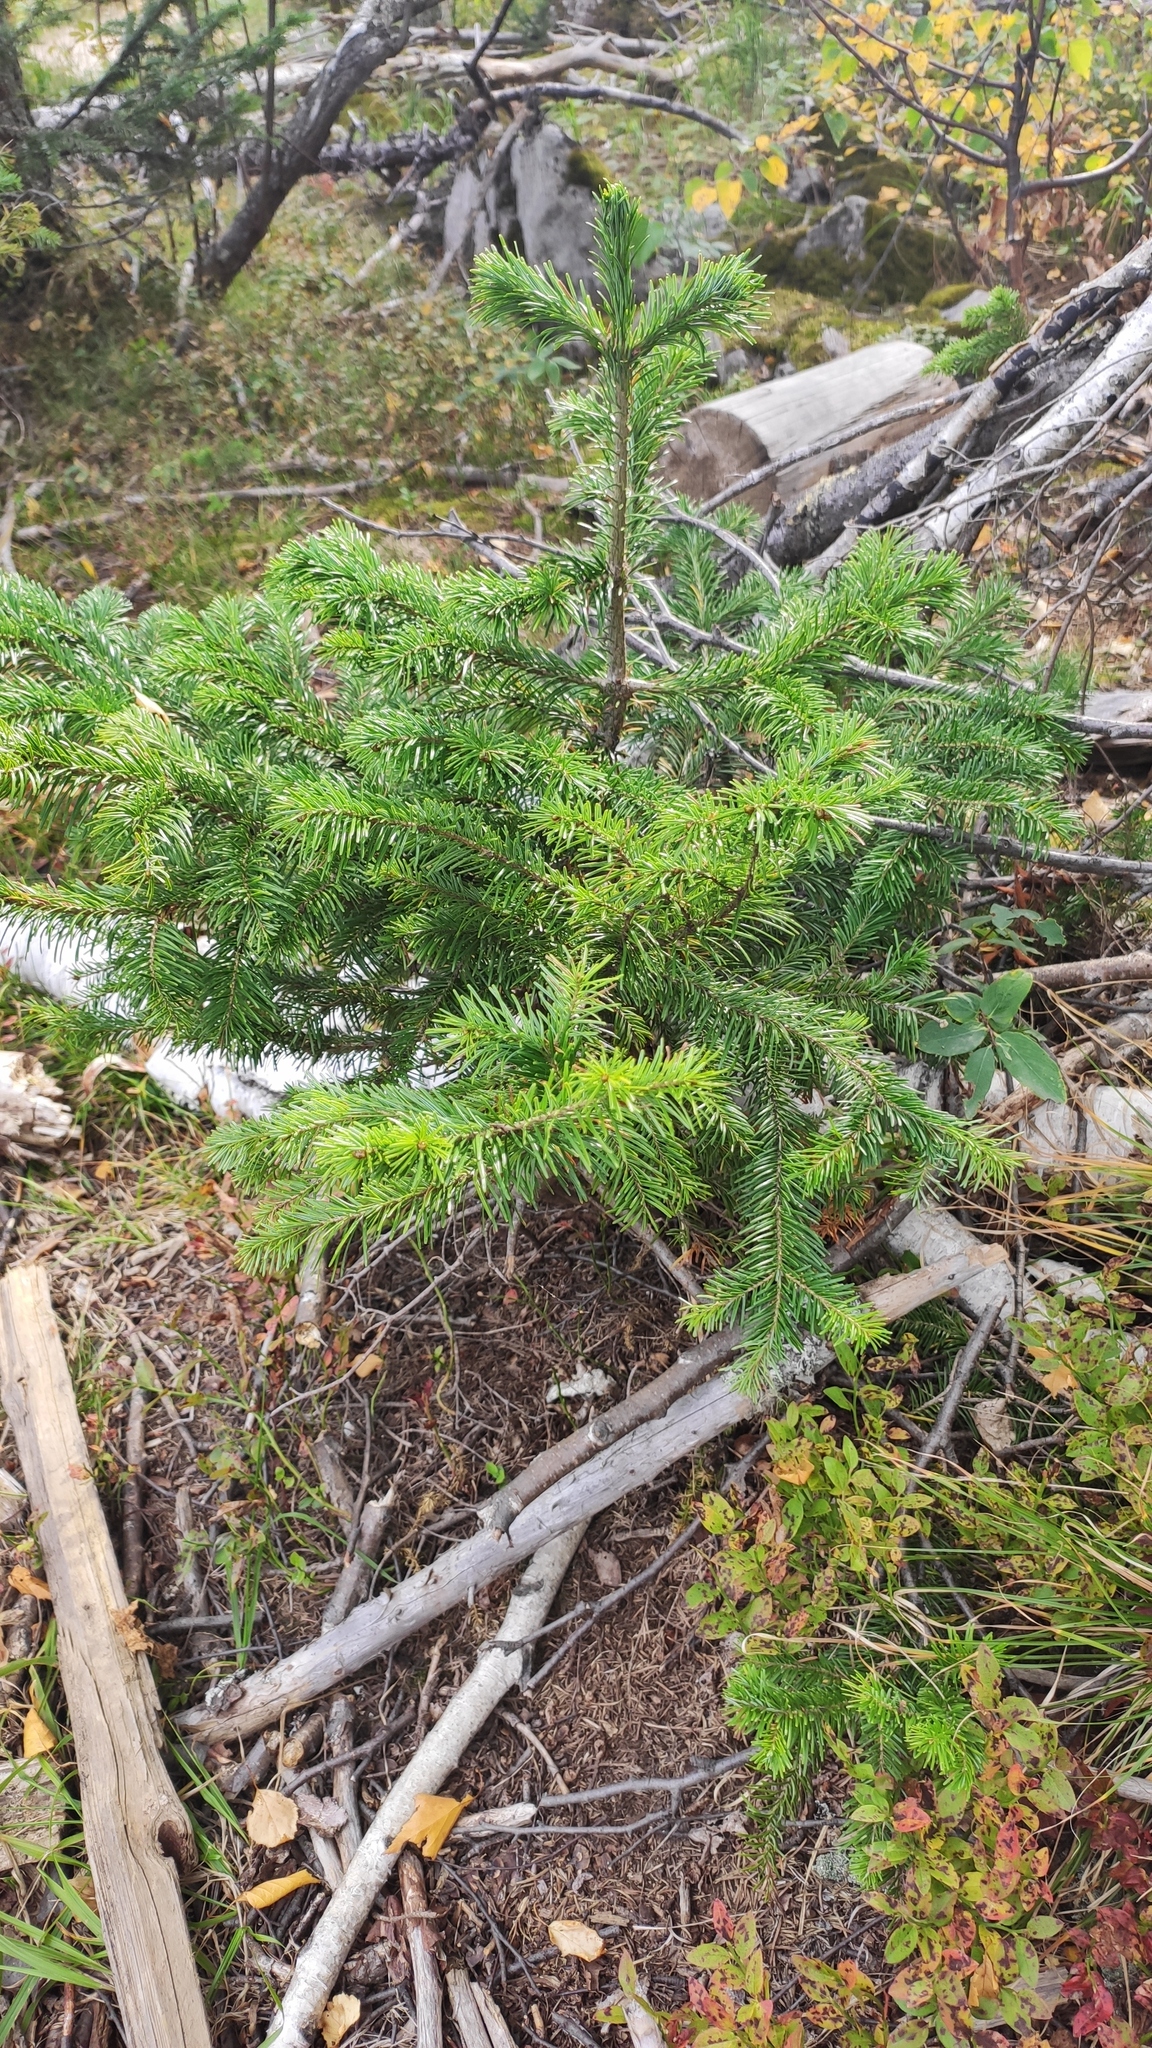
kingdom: Plantae
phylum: Tracheophyta
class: Pinopsida
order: Pinales
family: Pinaceae
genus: Abies
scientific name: Abies sibirica
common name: Siberian fir
